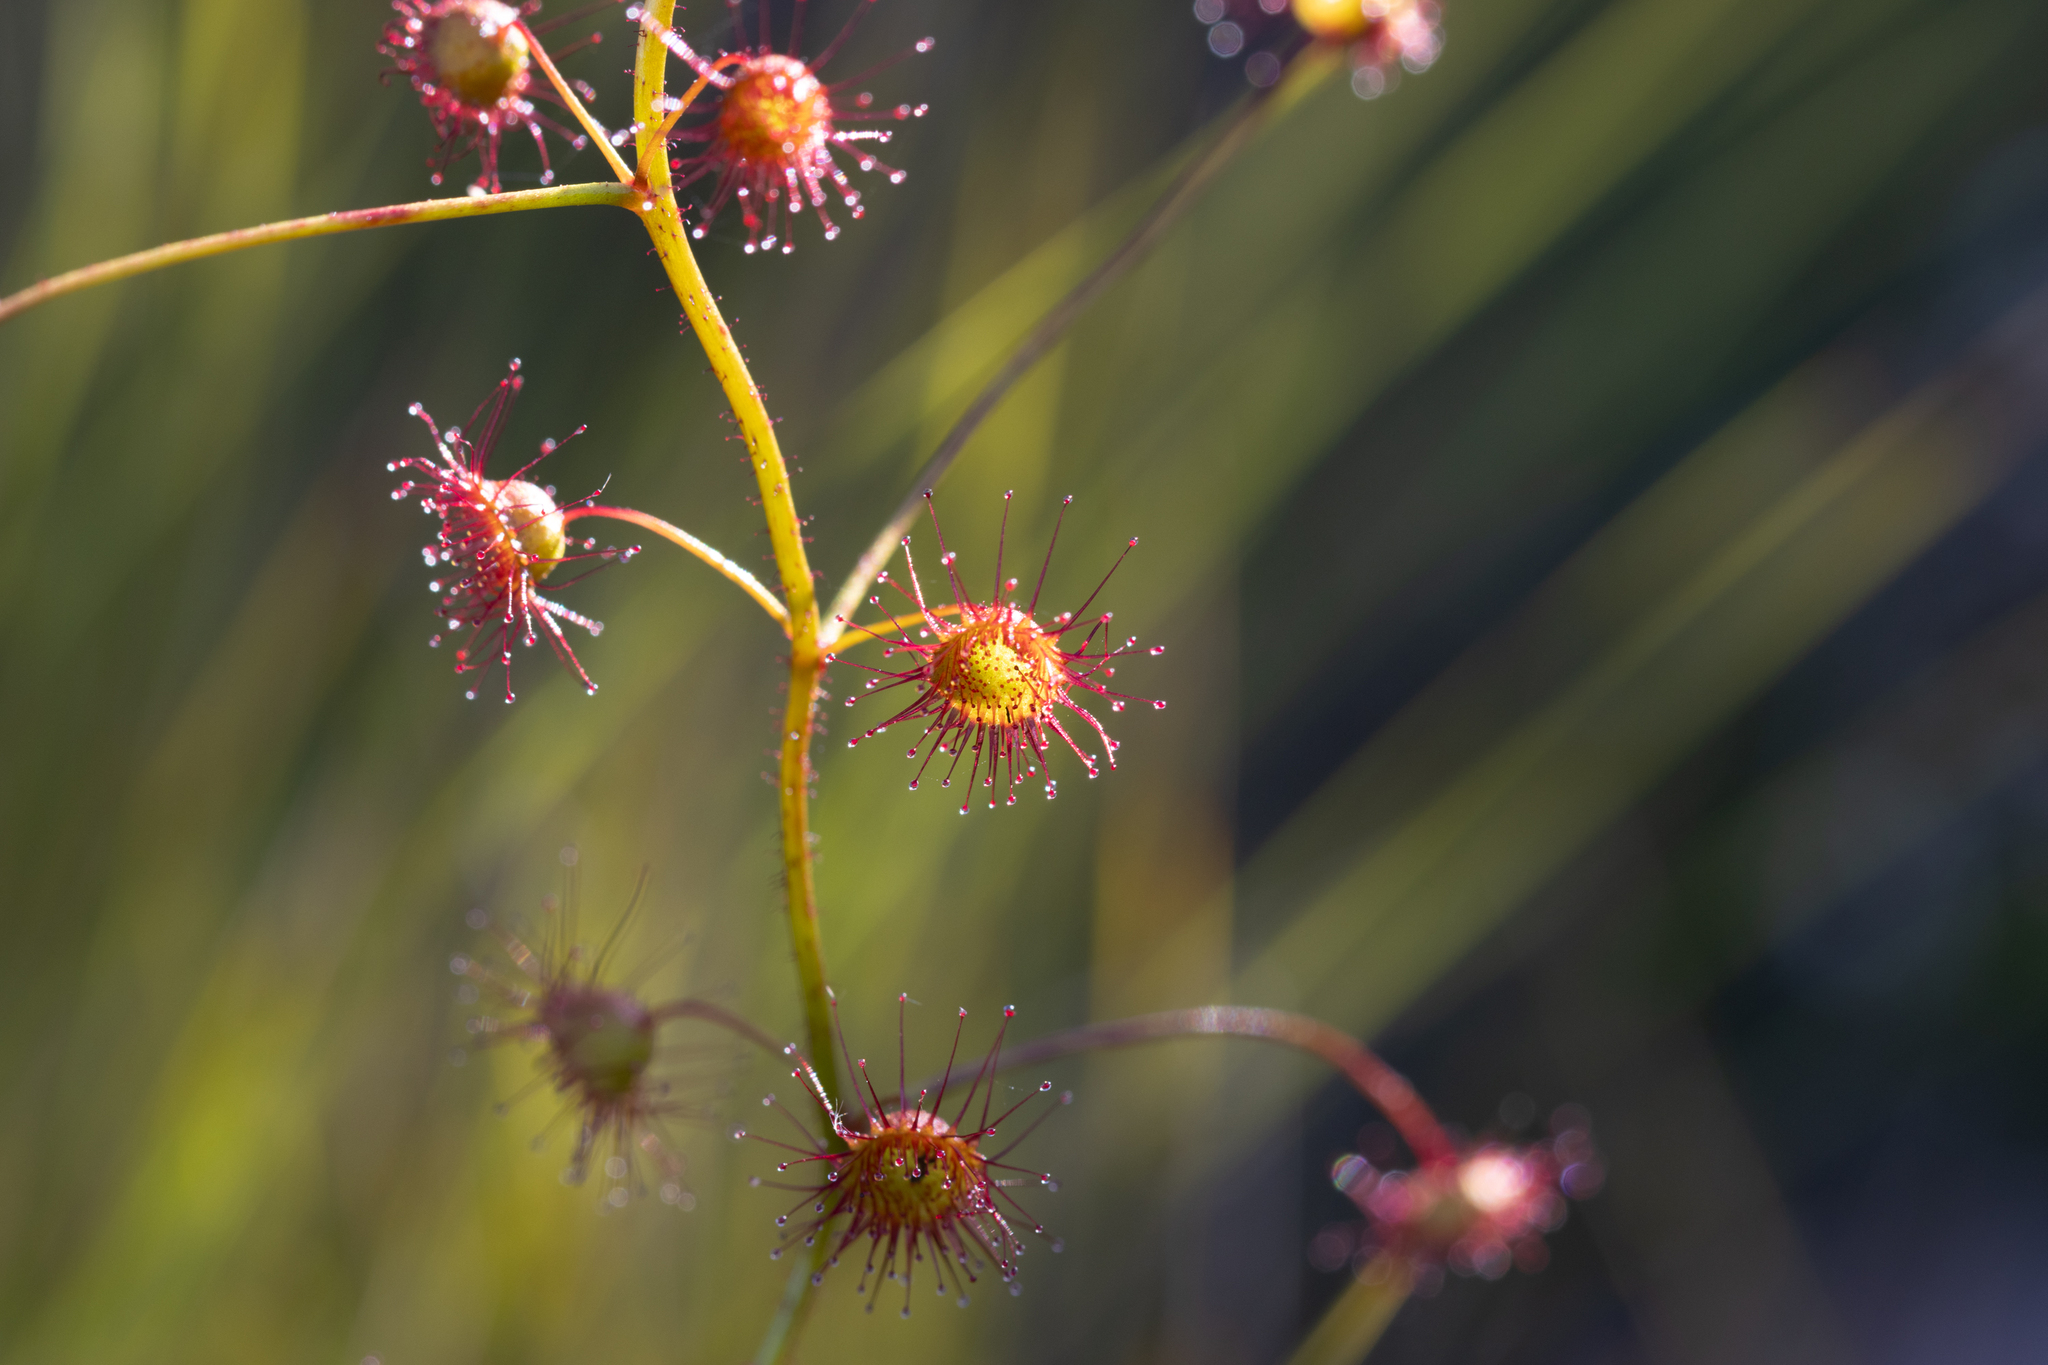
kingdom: Plantae
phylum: Tracheophyta
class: Magnoliopsida
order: Caryophyllales
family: Droseraceae
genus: Drosera
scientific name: Drosera planchonii
